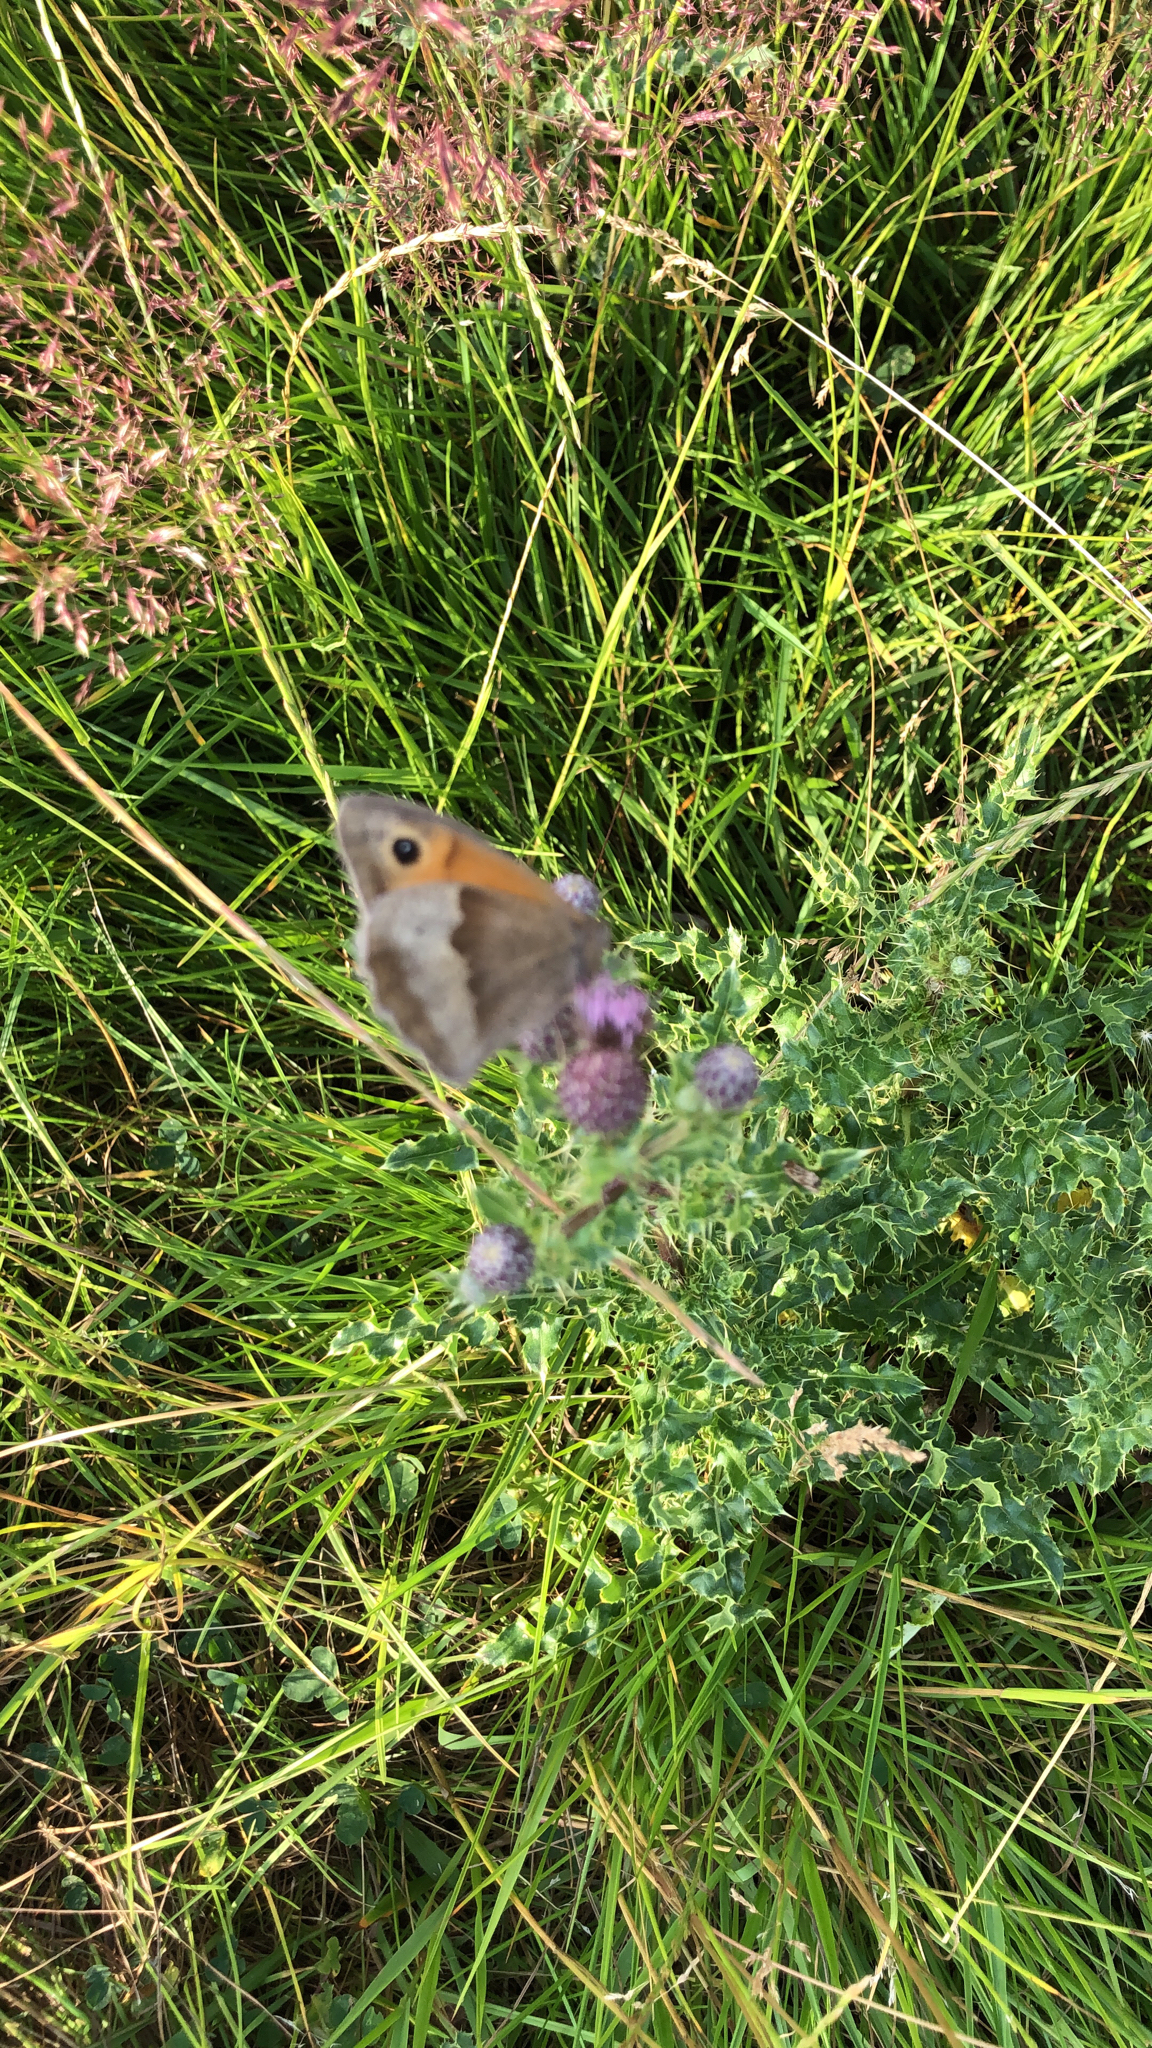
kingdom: Animalia
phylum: Arthropoda
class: Insecta
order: Lepidoptera
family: Nymphalidae
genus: Maniola
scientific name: Maniola jurtina
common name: Meadow brown
